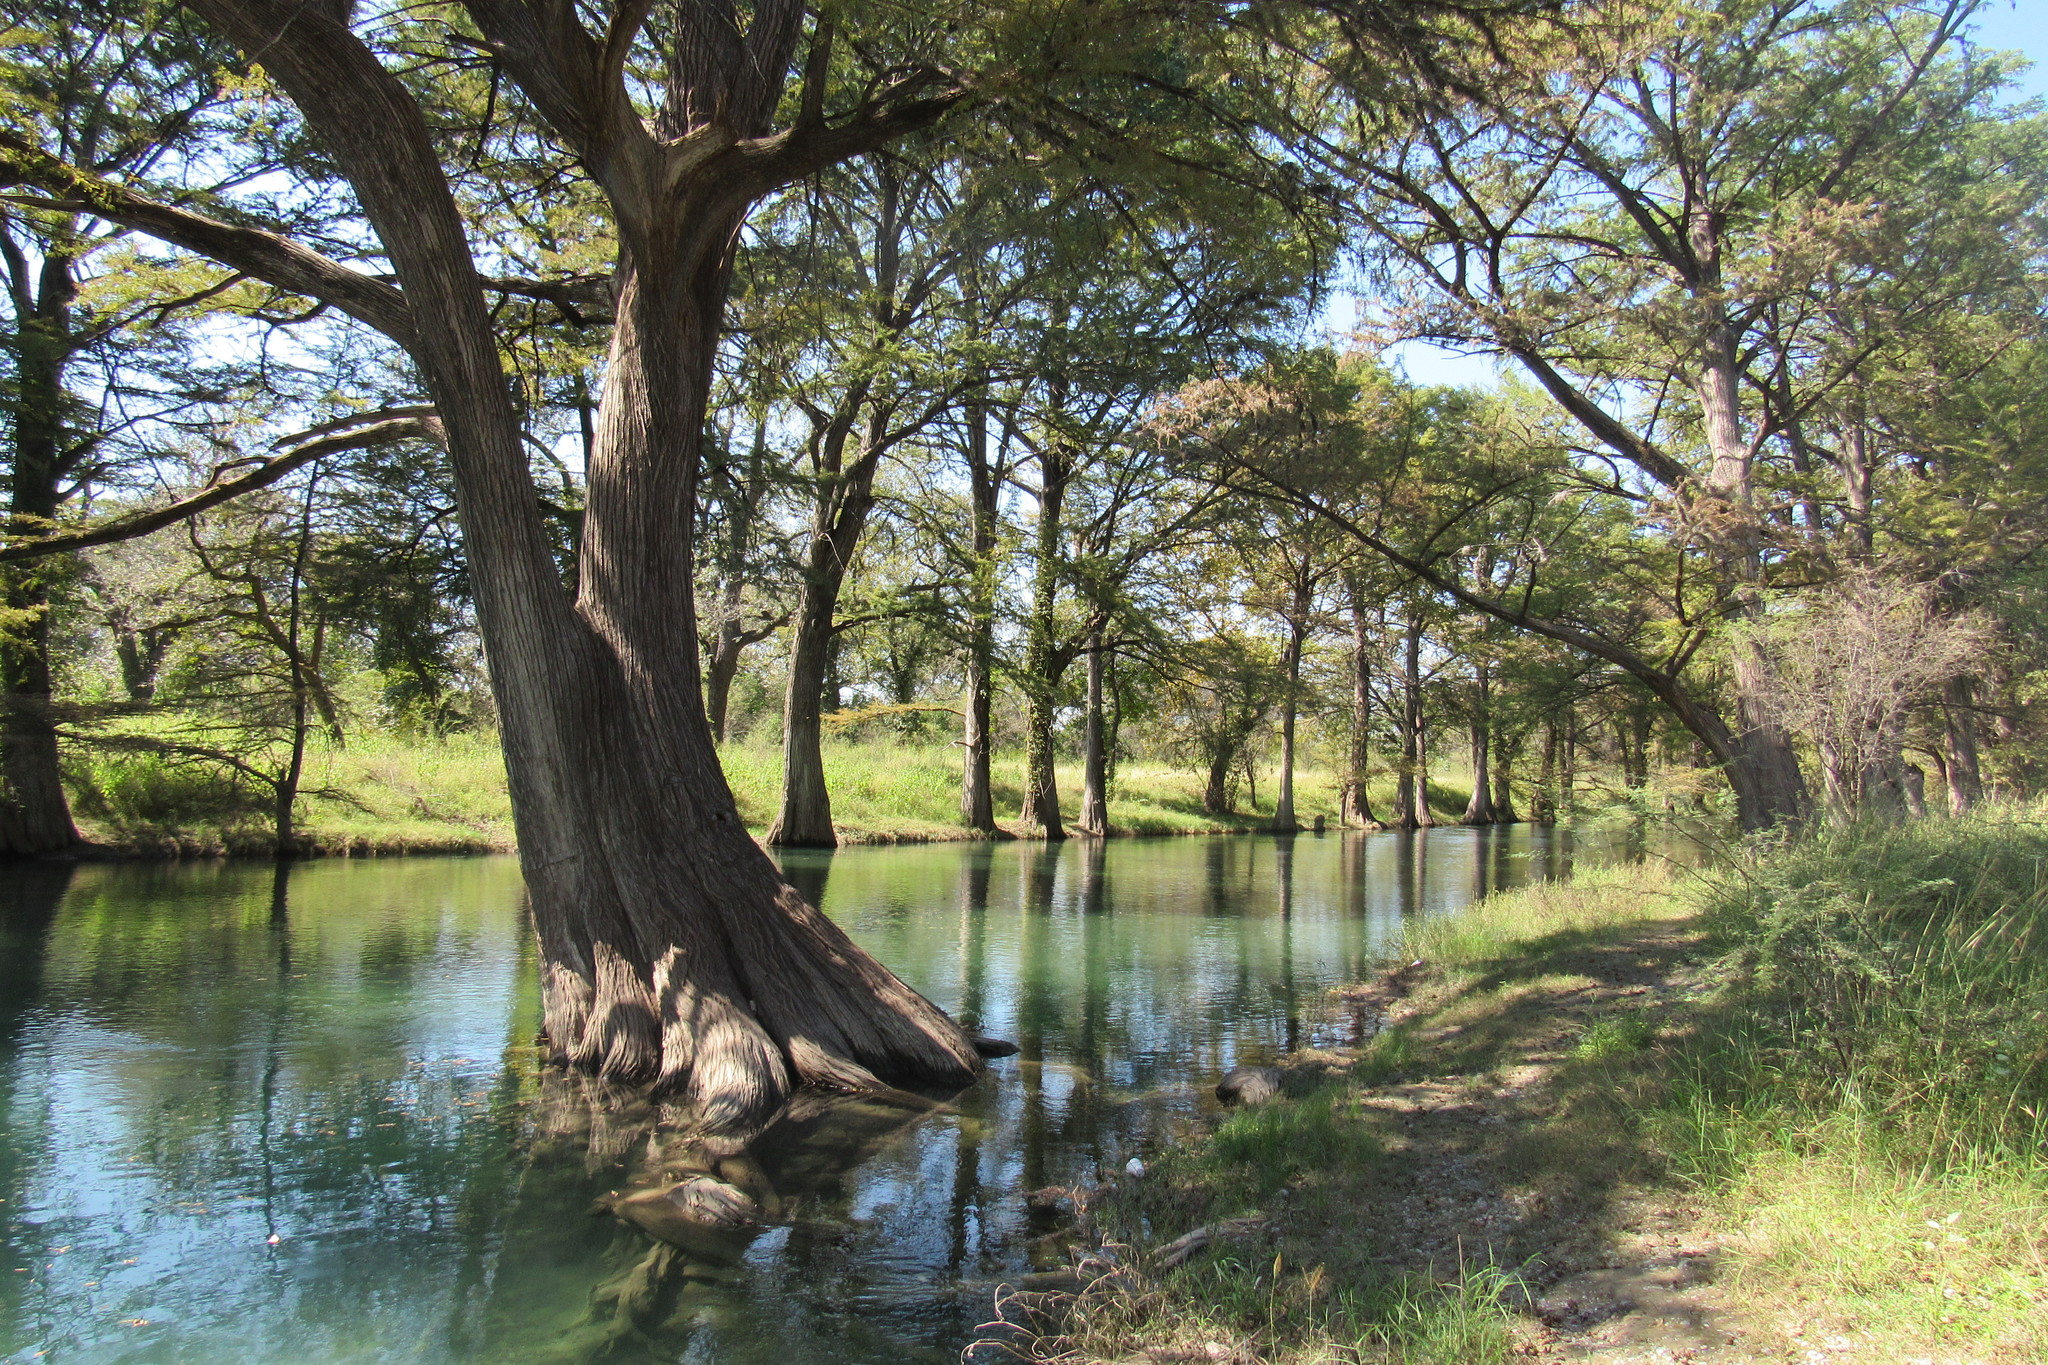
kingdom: Plantae
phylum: Tracheophyta
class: Pinopsida
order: Pinales
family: Cupressaceae
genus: Taxodium
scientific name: Taxodium mucronatum
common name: Montezume bald cypress
